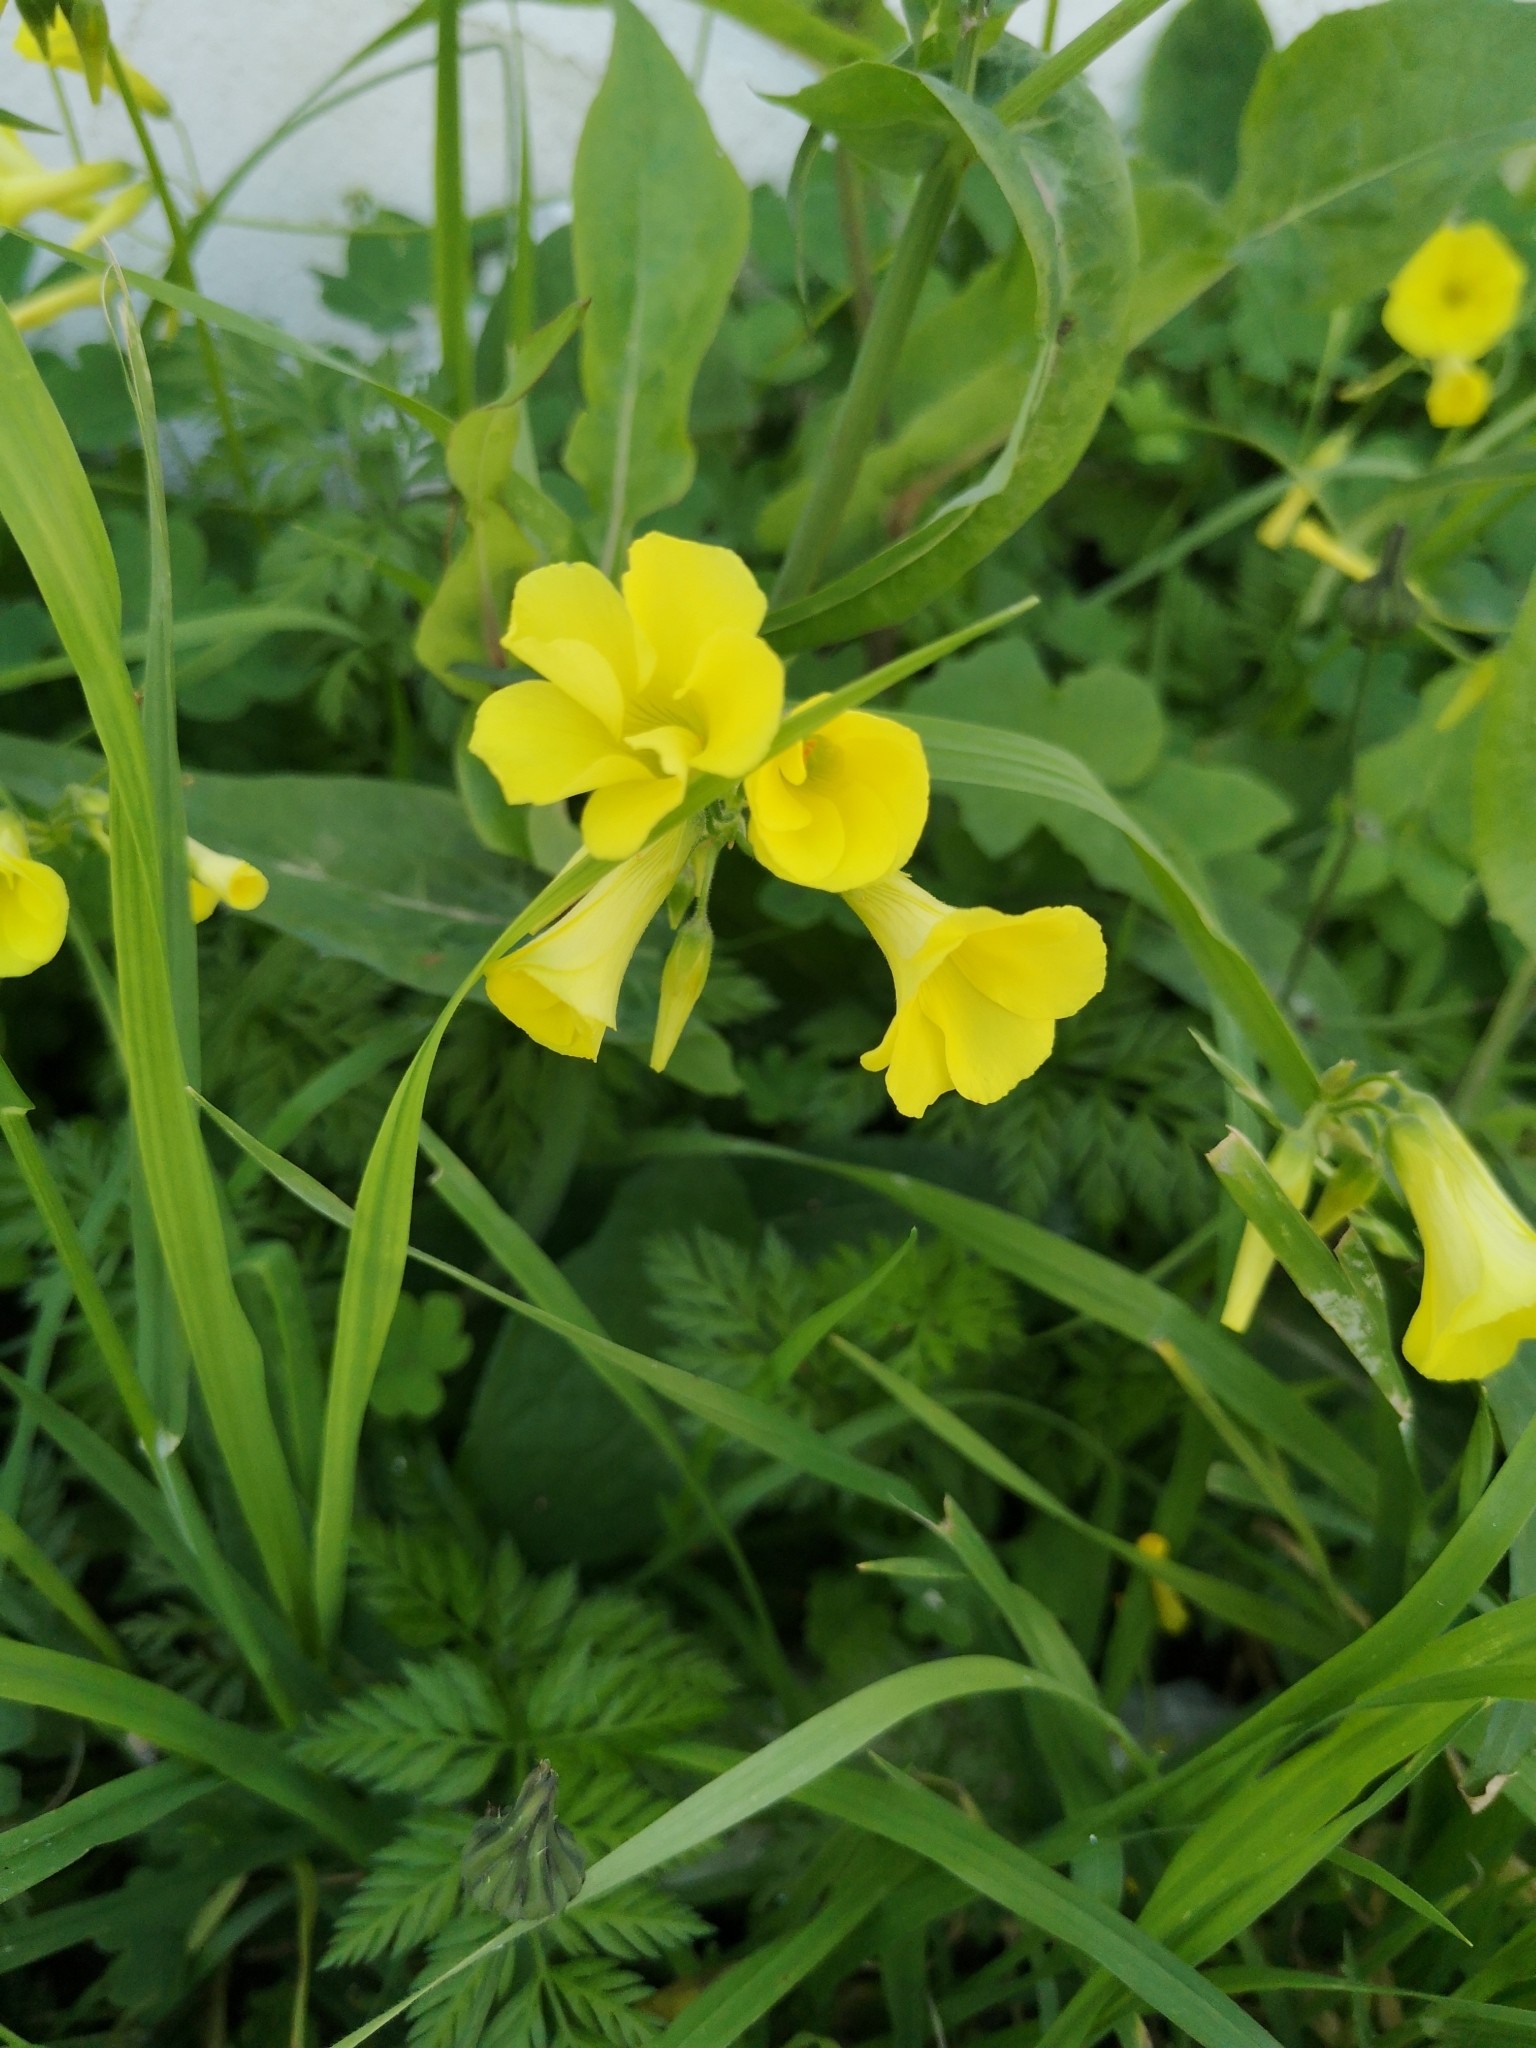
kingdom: Plantae
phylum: Tracheophyta
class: Magnoliopsida
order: Oxalidales
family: Oxalidaceae
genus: Oxalis
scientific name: Oxalis pes-caprae
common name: Bermuda-buttercup
